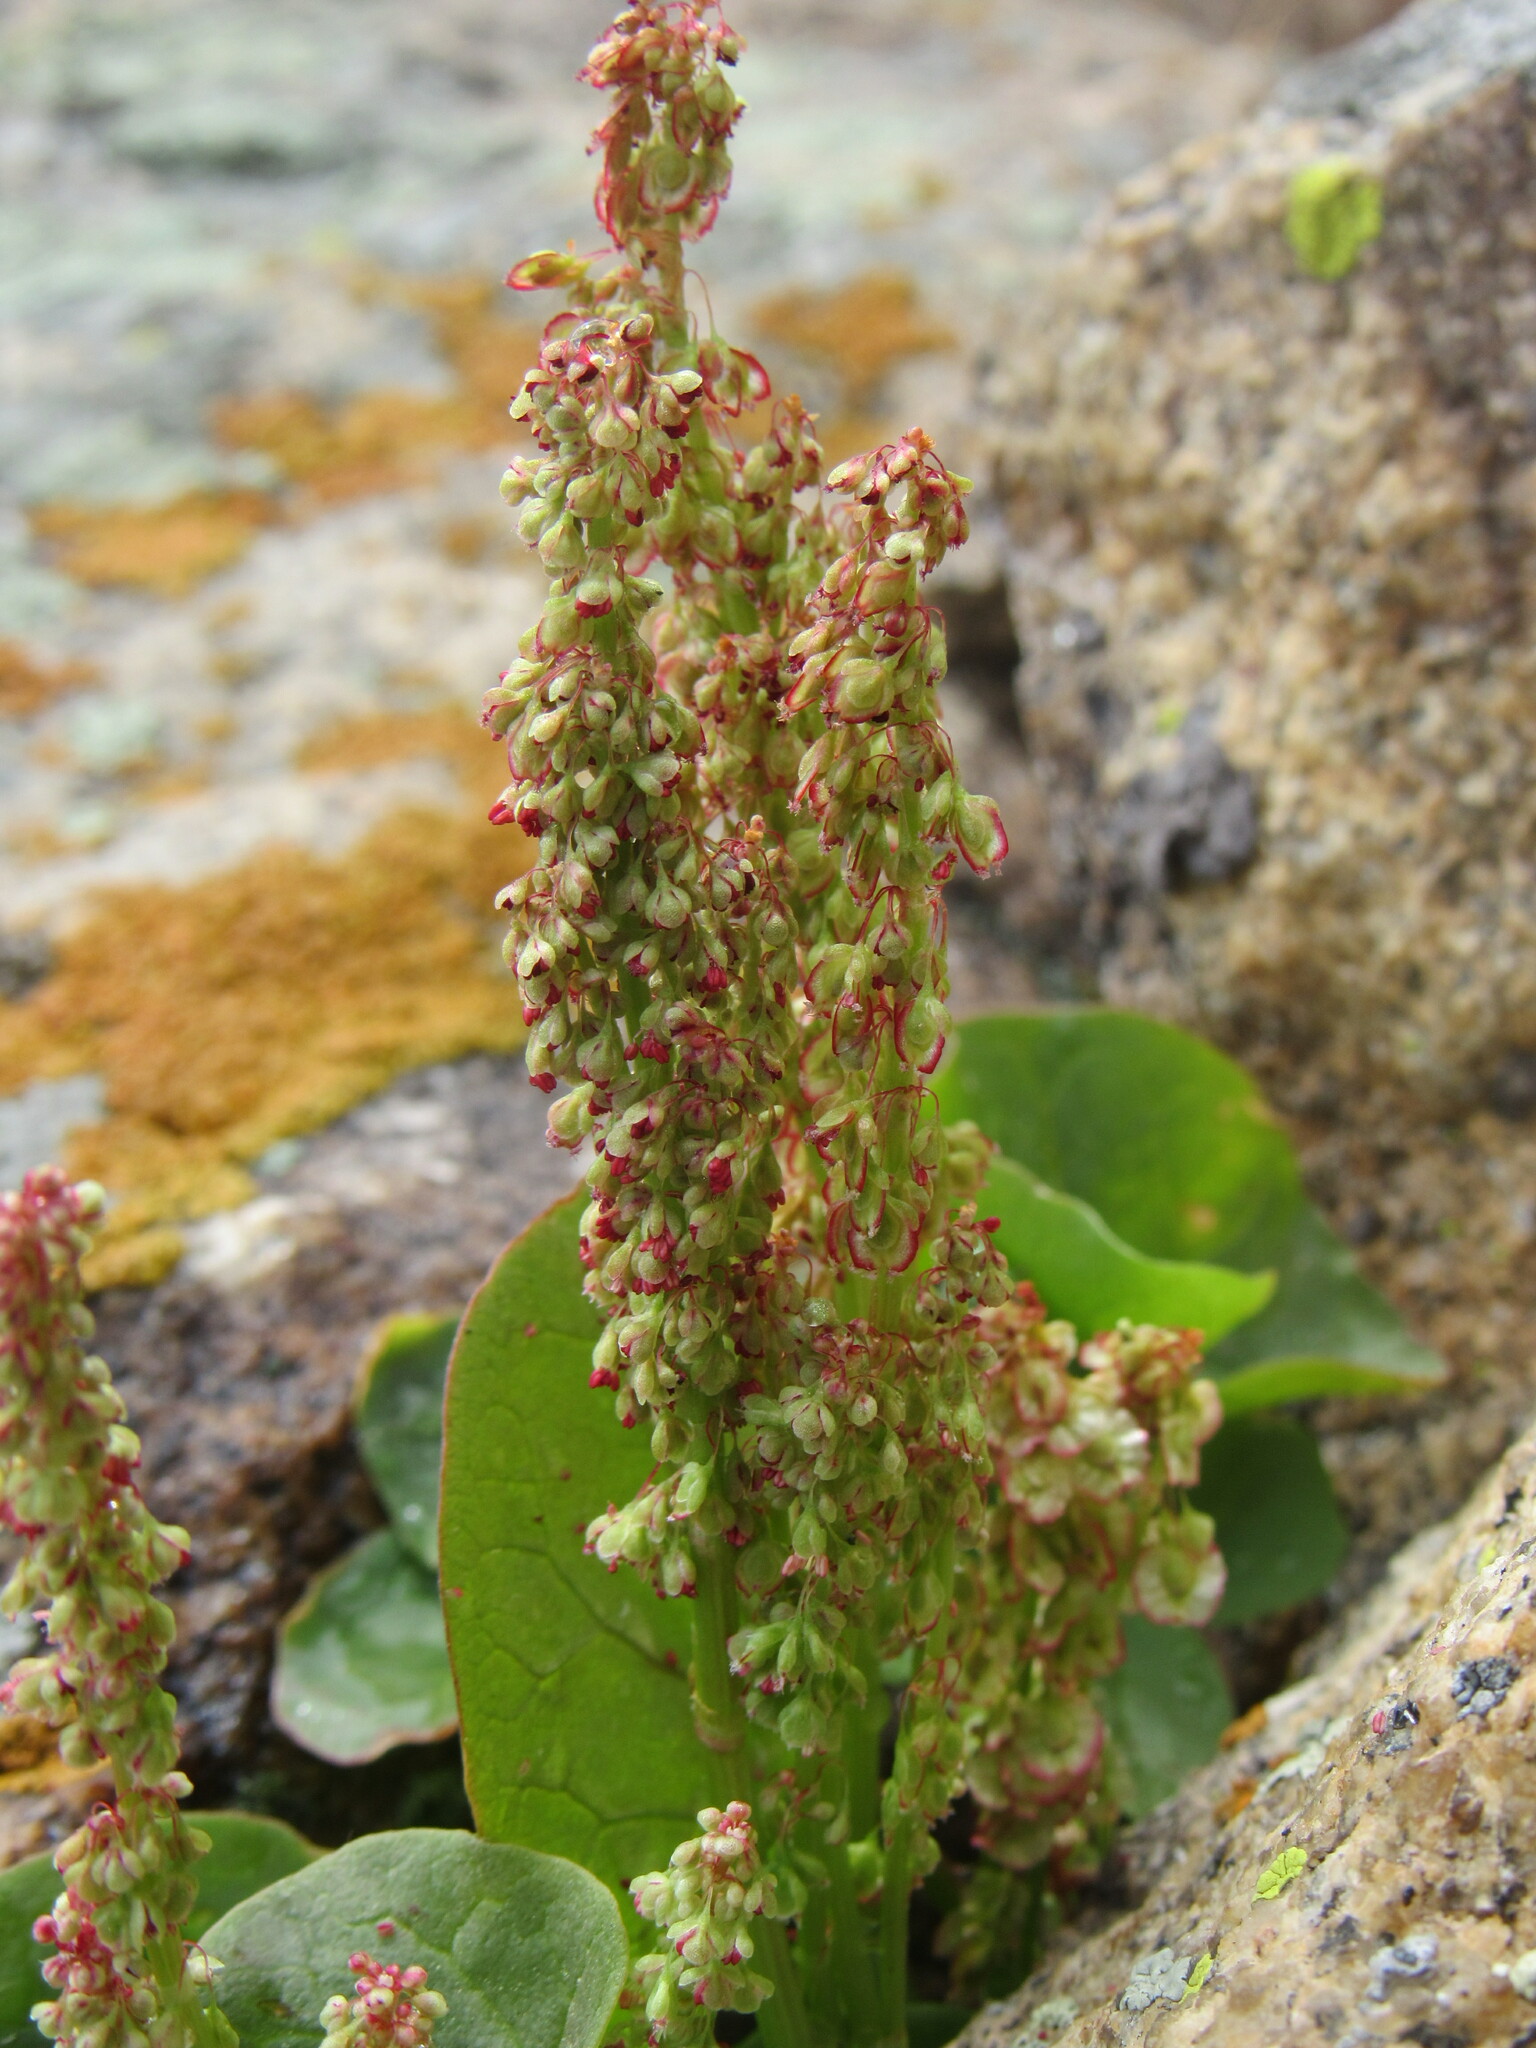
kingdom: Plantae
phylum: Tracheophyta
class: Magnoliopsida
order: Caryophyllales
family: Polygonaceae
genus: Oxyria
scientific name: Oxyria digyna
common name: Alpine mountain-sorrel
